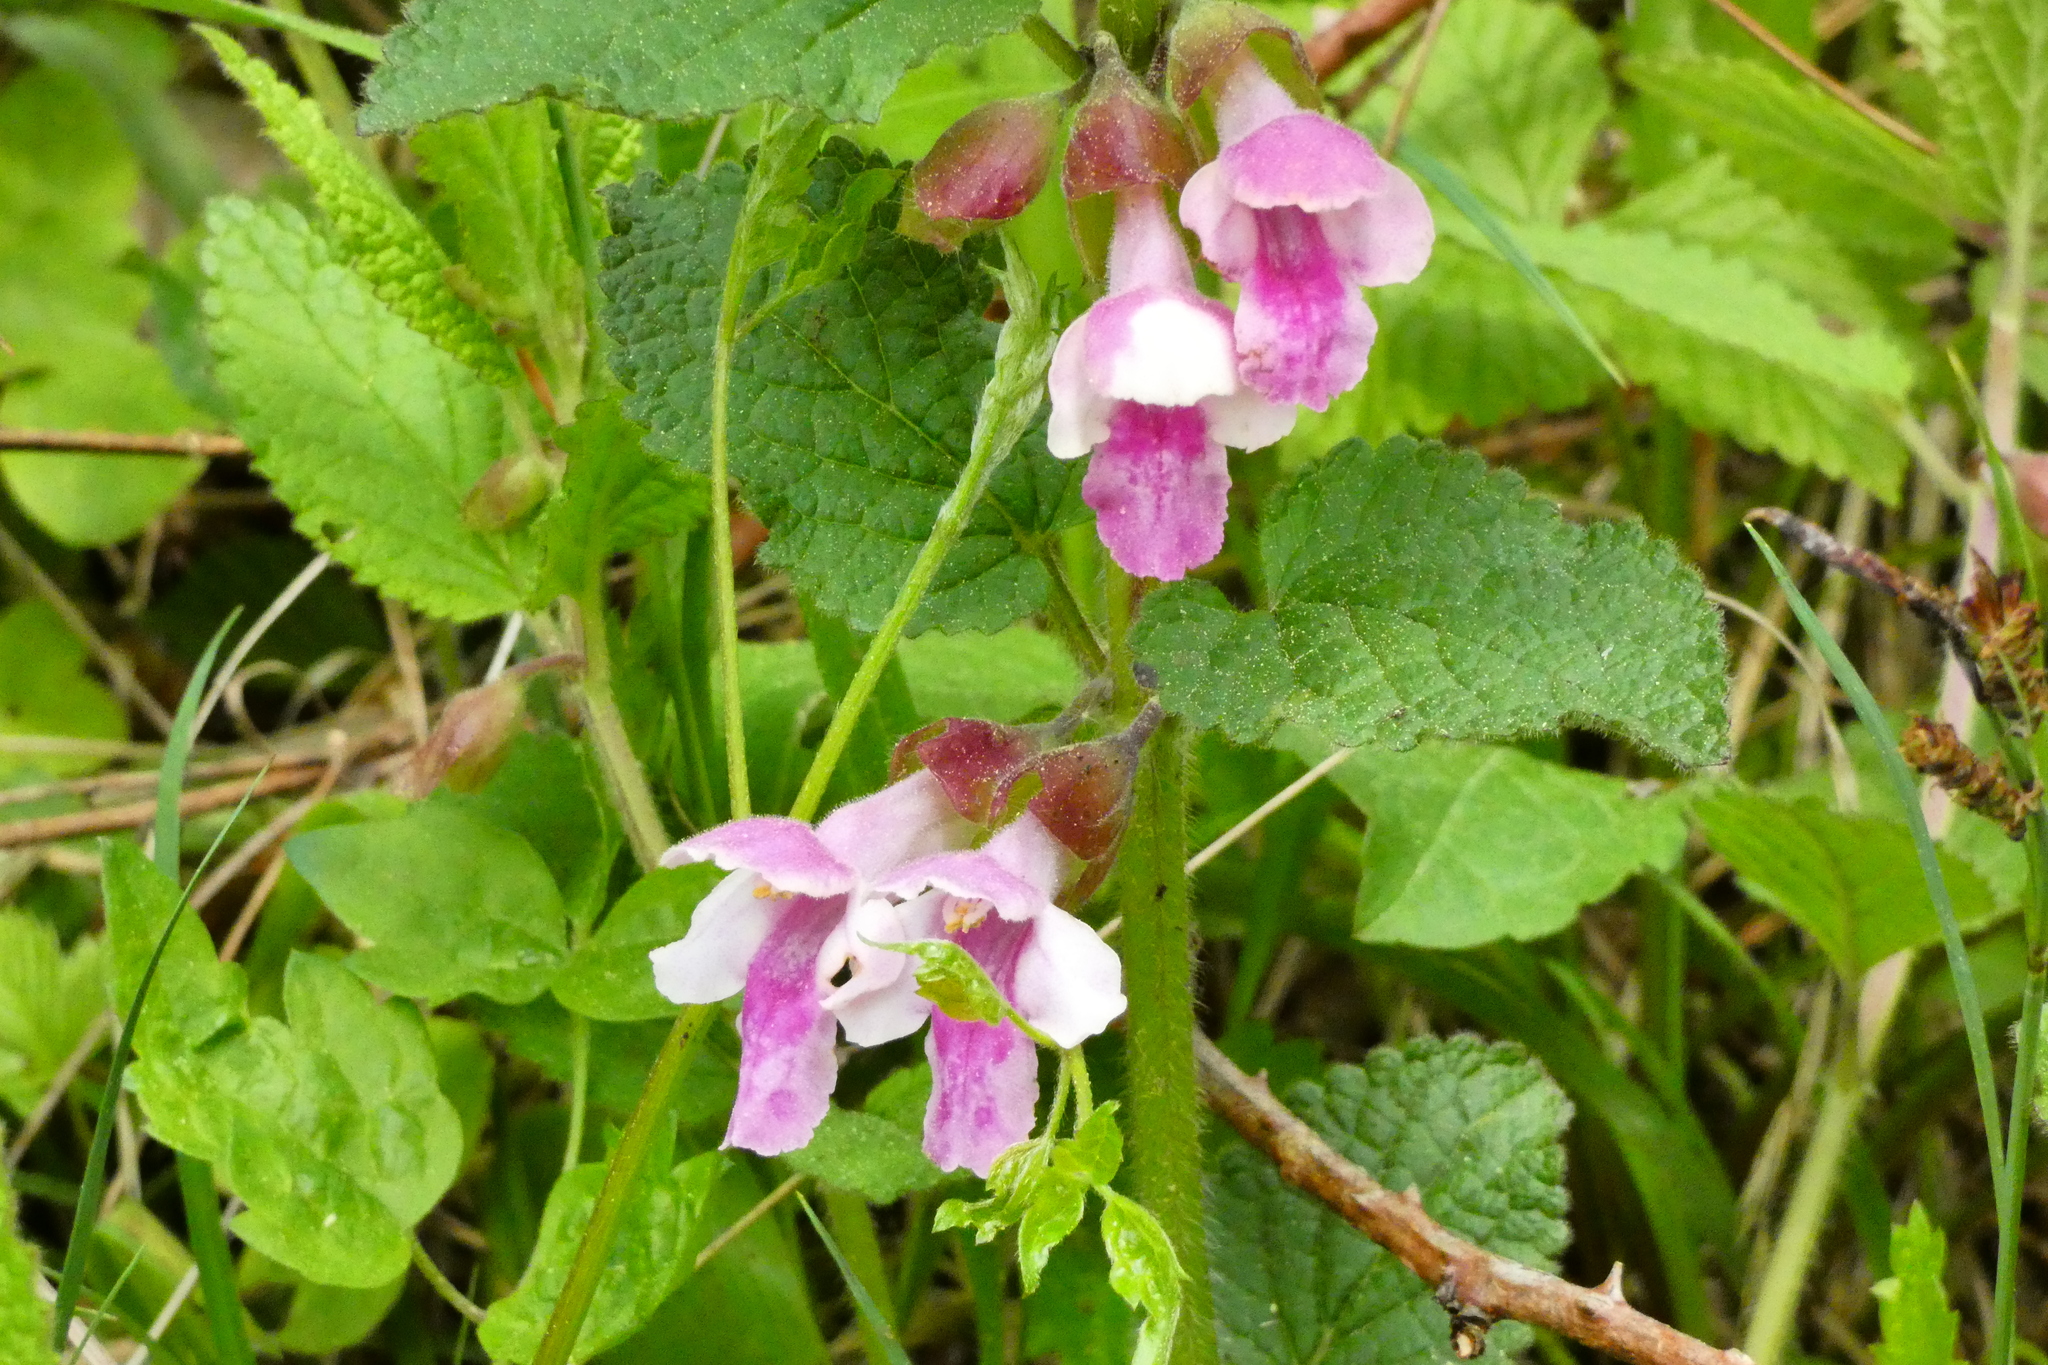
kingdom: Plantae
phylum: Tracheophyta
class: Magnoliopsida
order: Lamiales
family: Lamiaceae
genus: Melittis
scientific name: Melittis melissophyllum
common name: Bastard balm
